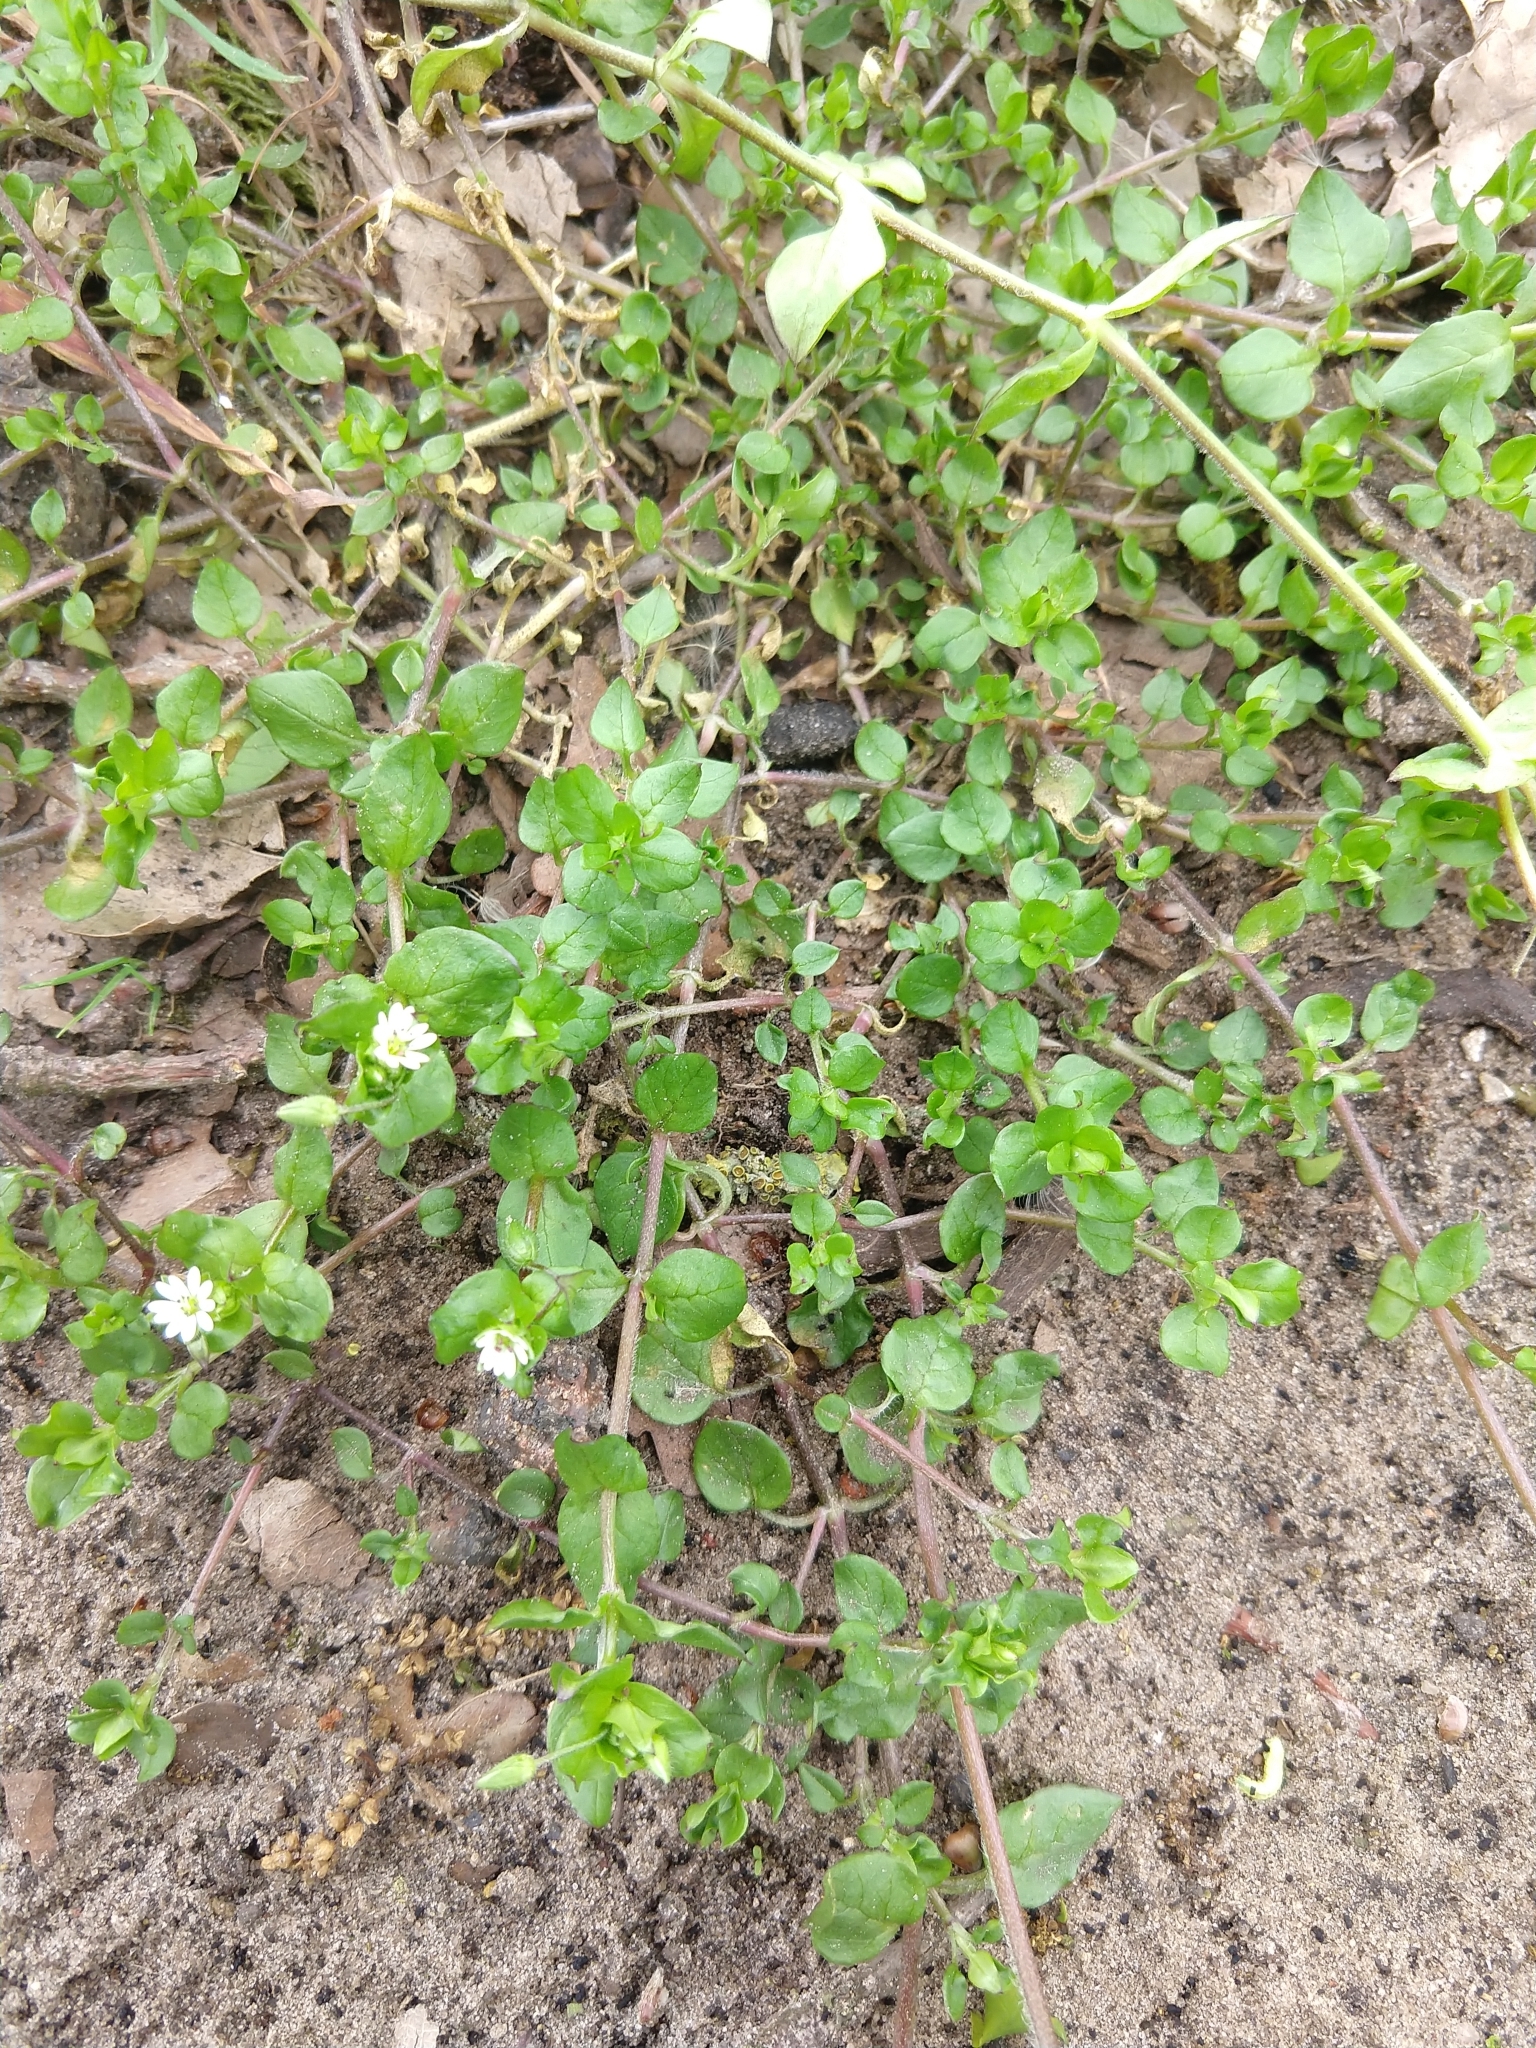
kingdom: Plantae
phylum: Tracheophyta
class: Magnoliopsida
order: Caryophyllales
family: Caryophyllaceae
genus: Stellaria
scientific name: Stellaria media
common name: Common chickweed
